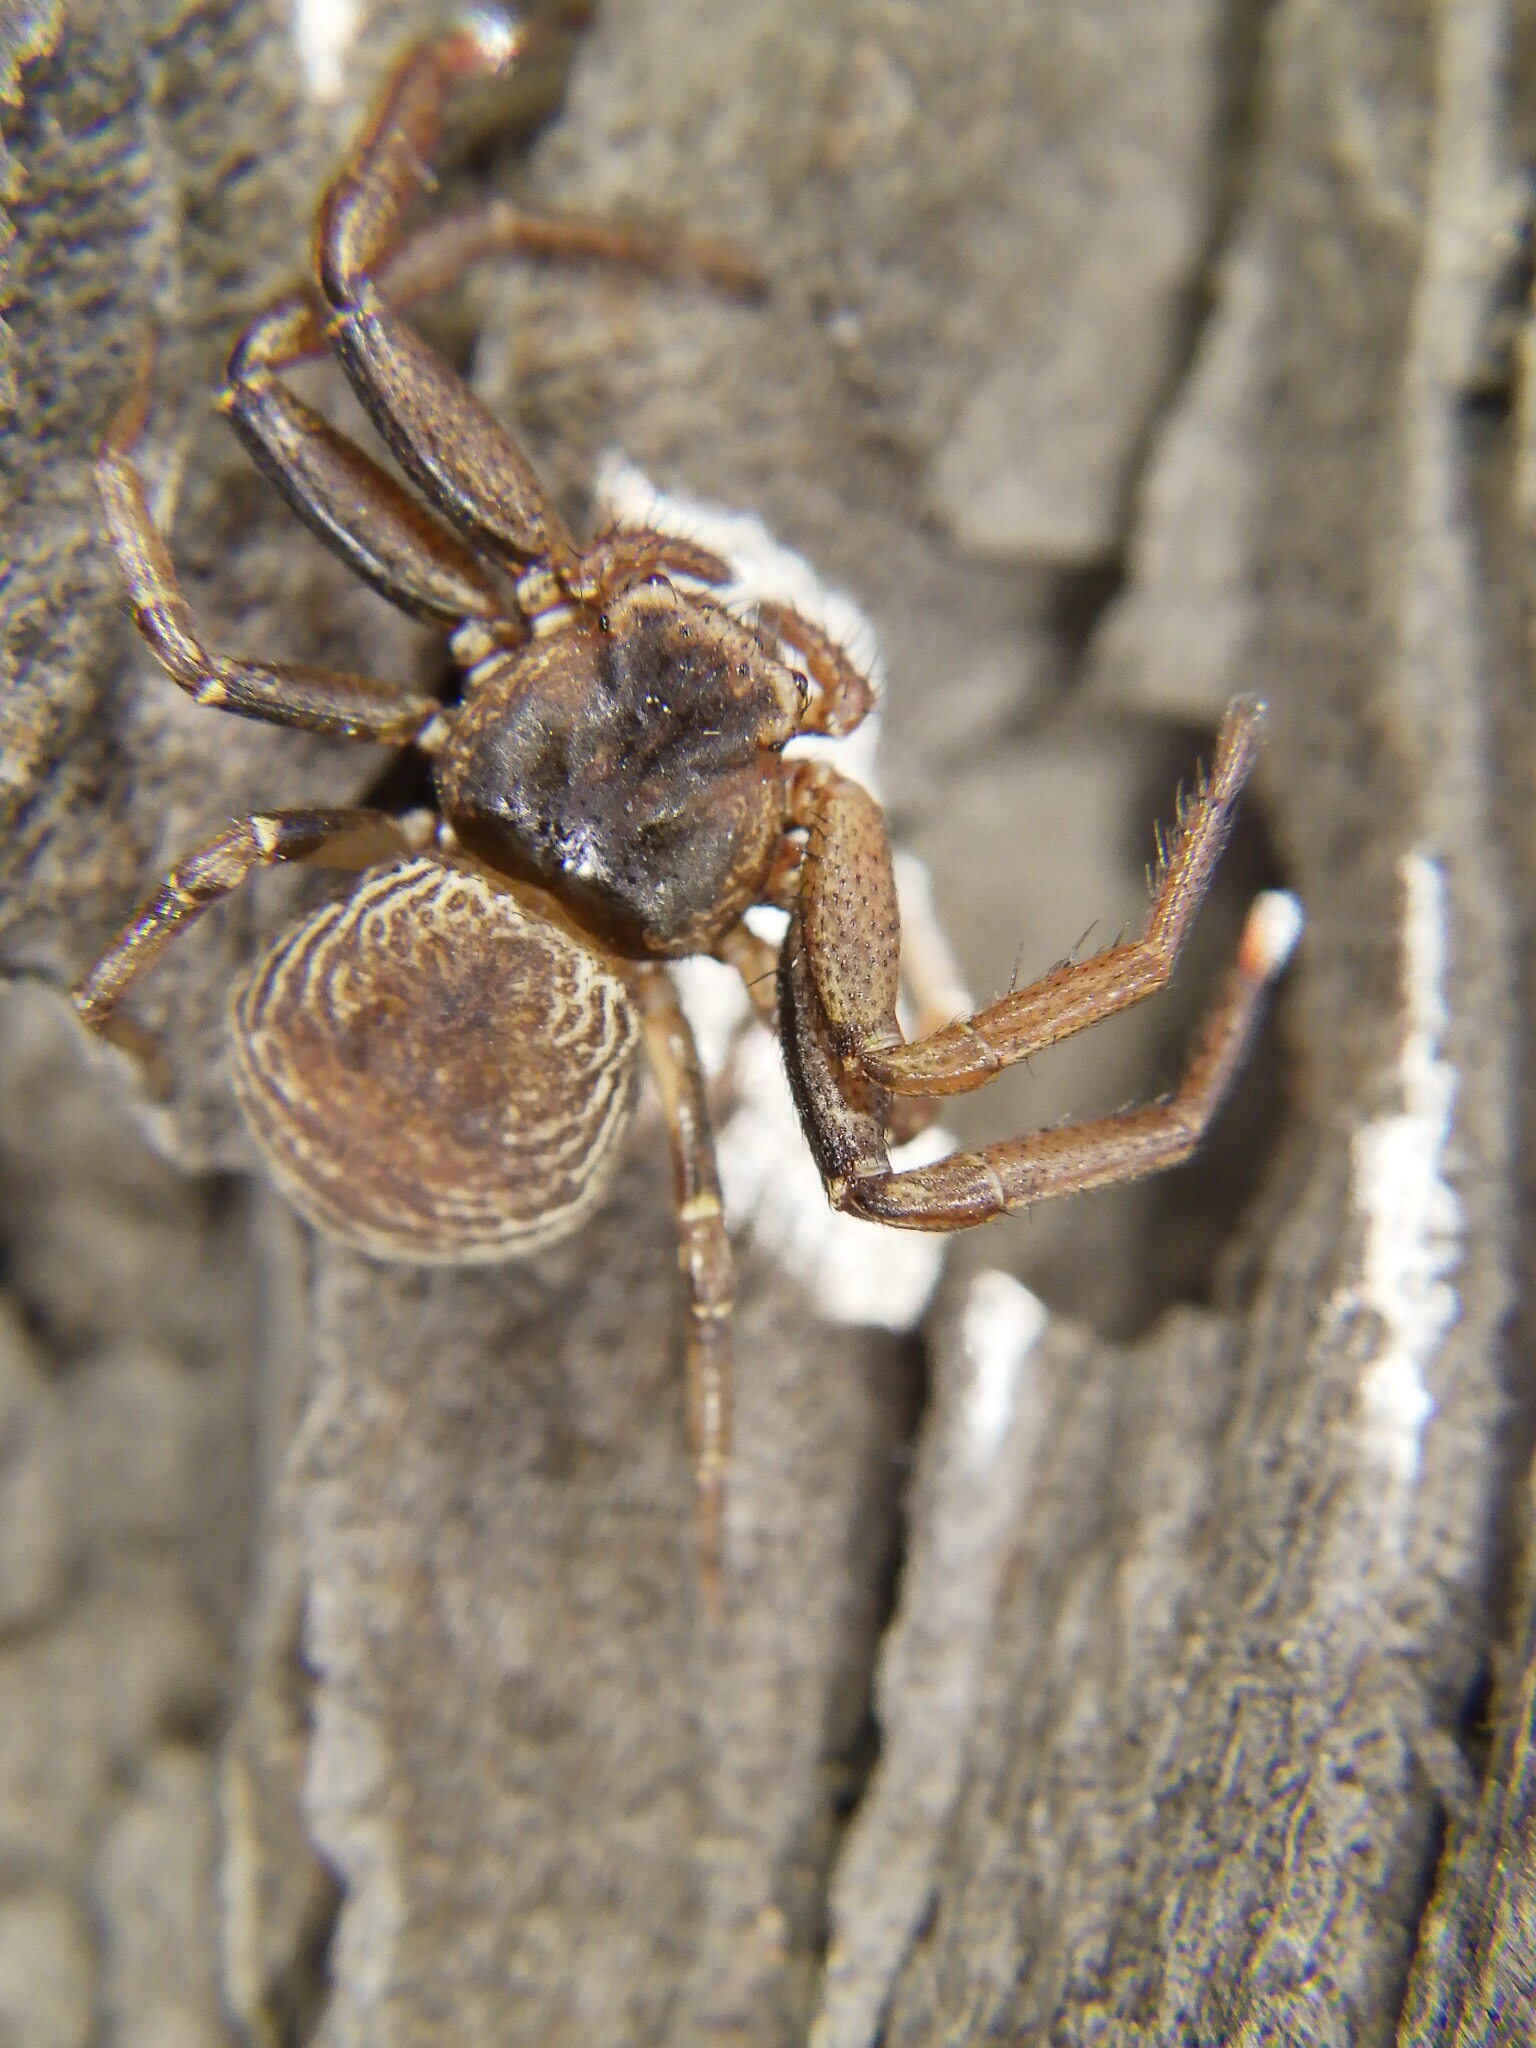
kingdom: Animalia
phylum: Arthropoda
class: Arachnida
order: Araneae
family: Thomisidae
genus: Coriarachne
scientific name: Coriarachne depressa
